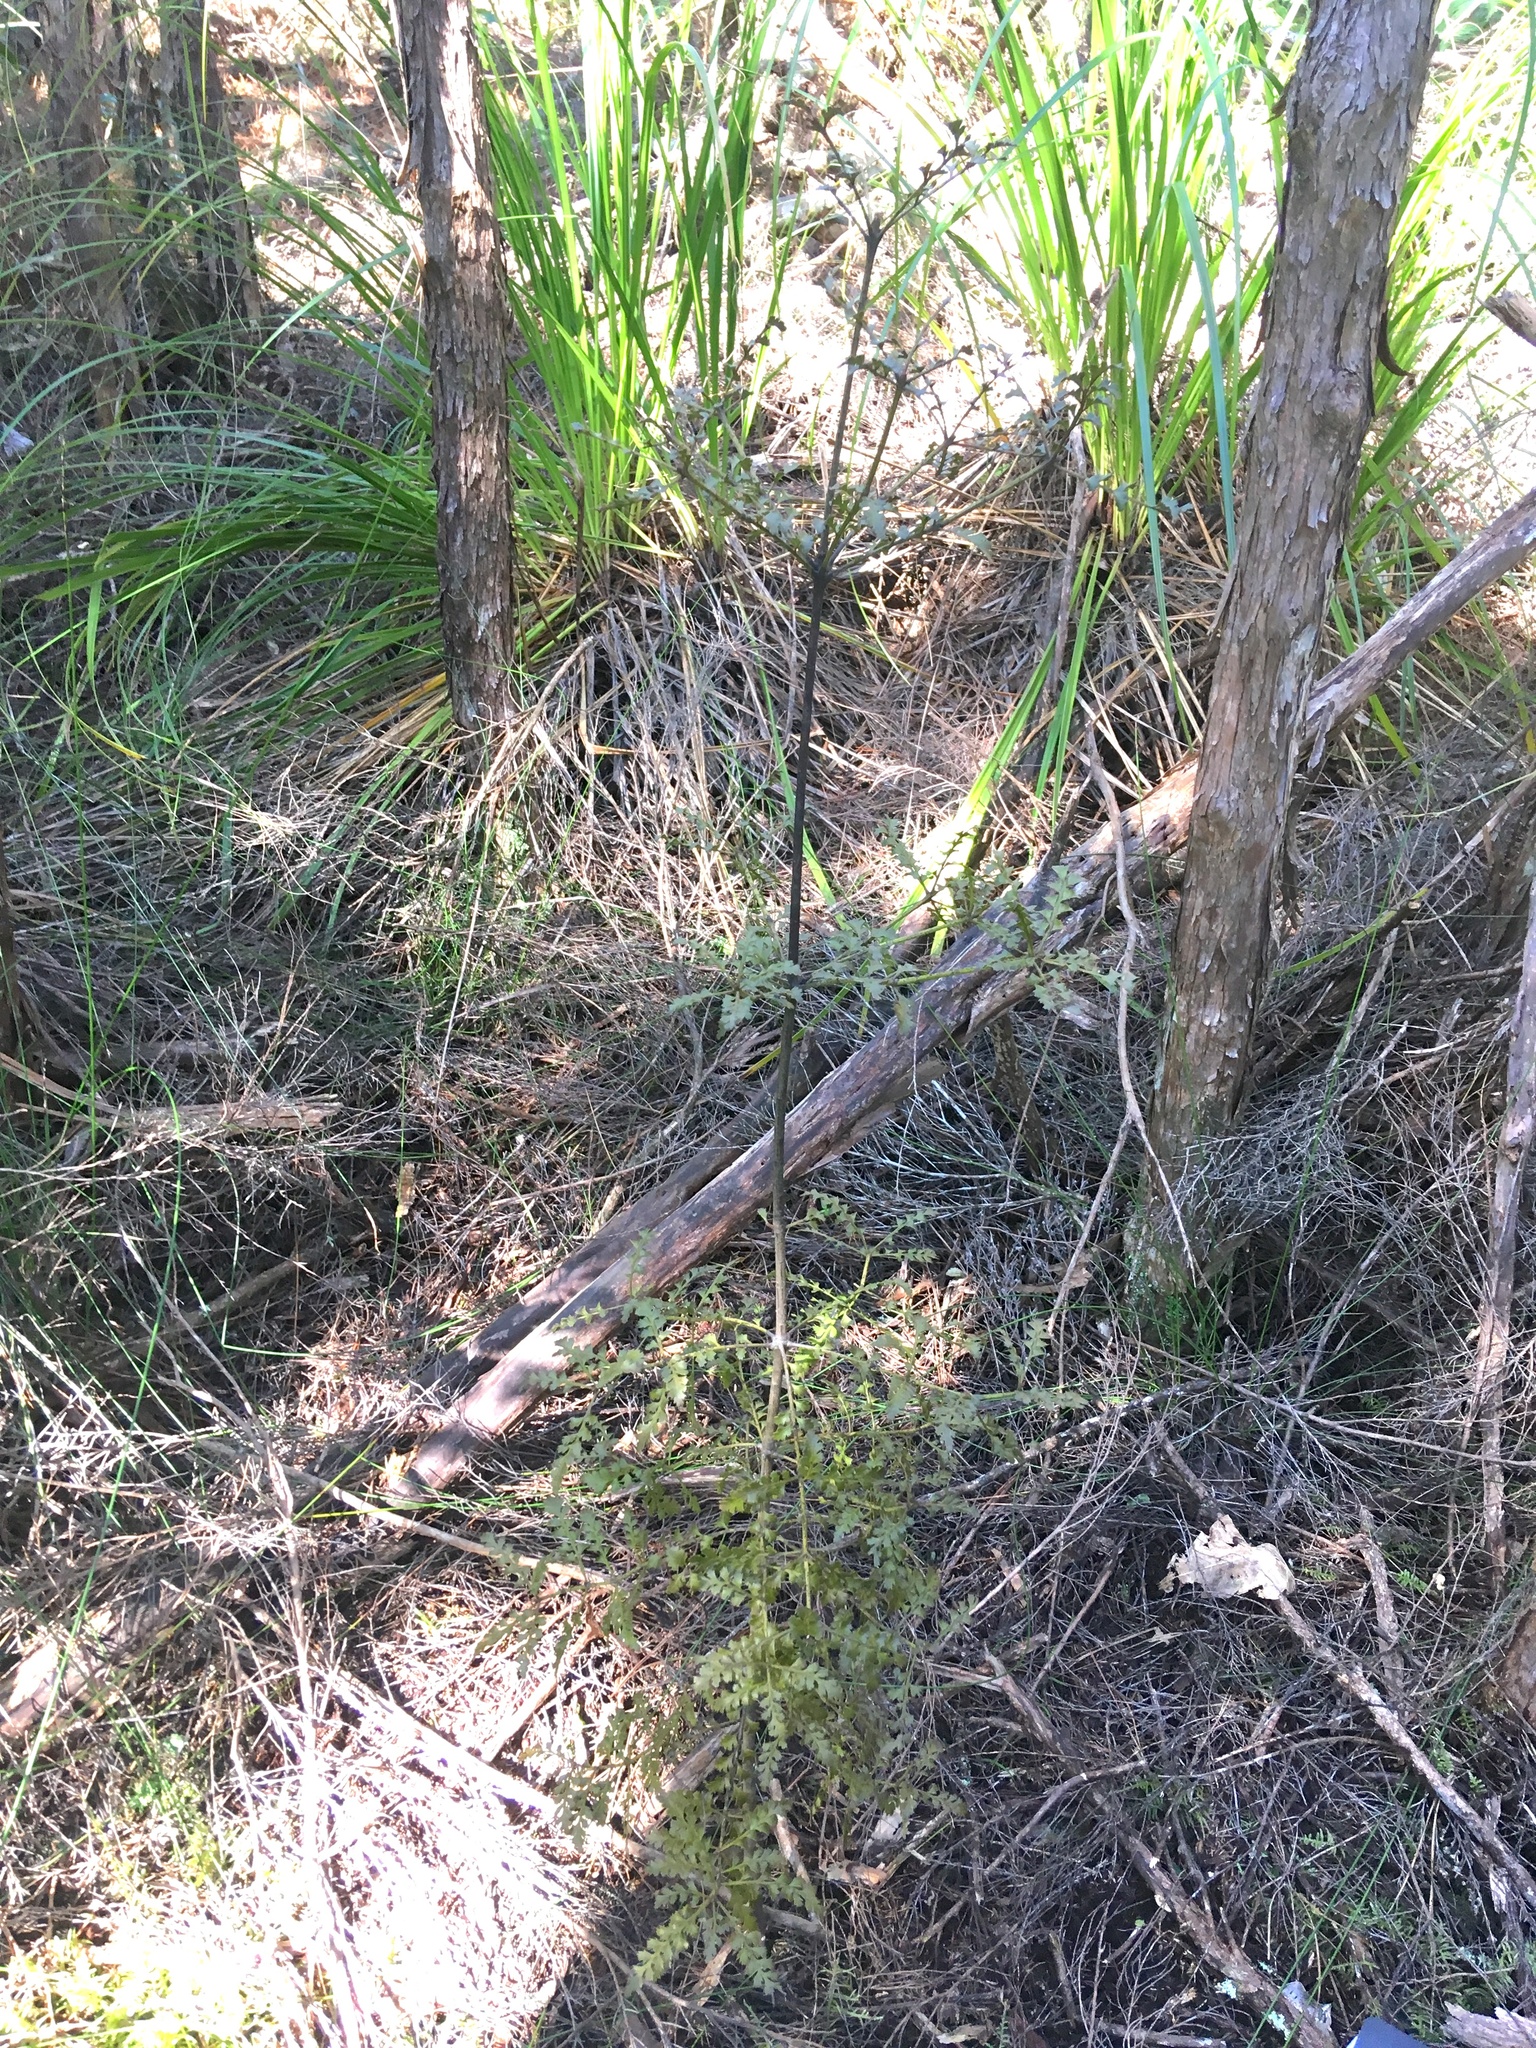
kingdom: Plantae
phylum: Tracheophyta
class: Pinopsida
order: Pinales
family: Phyllocladaceae
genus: Phyllocladus
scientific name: Phyllocladus trichomanoides
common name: Celery pine
